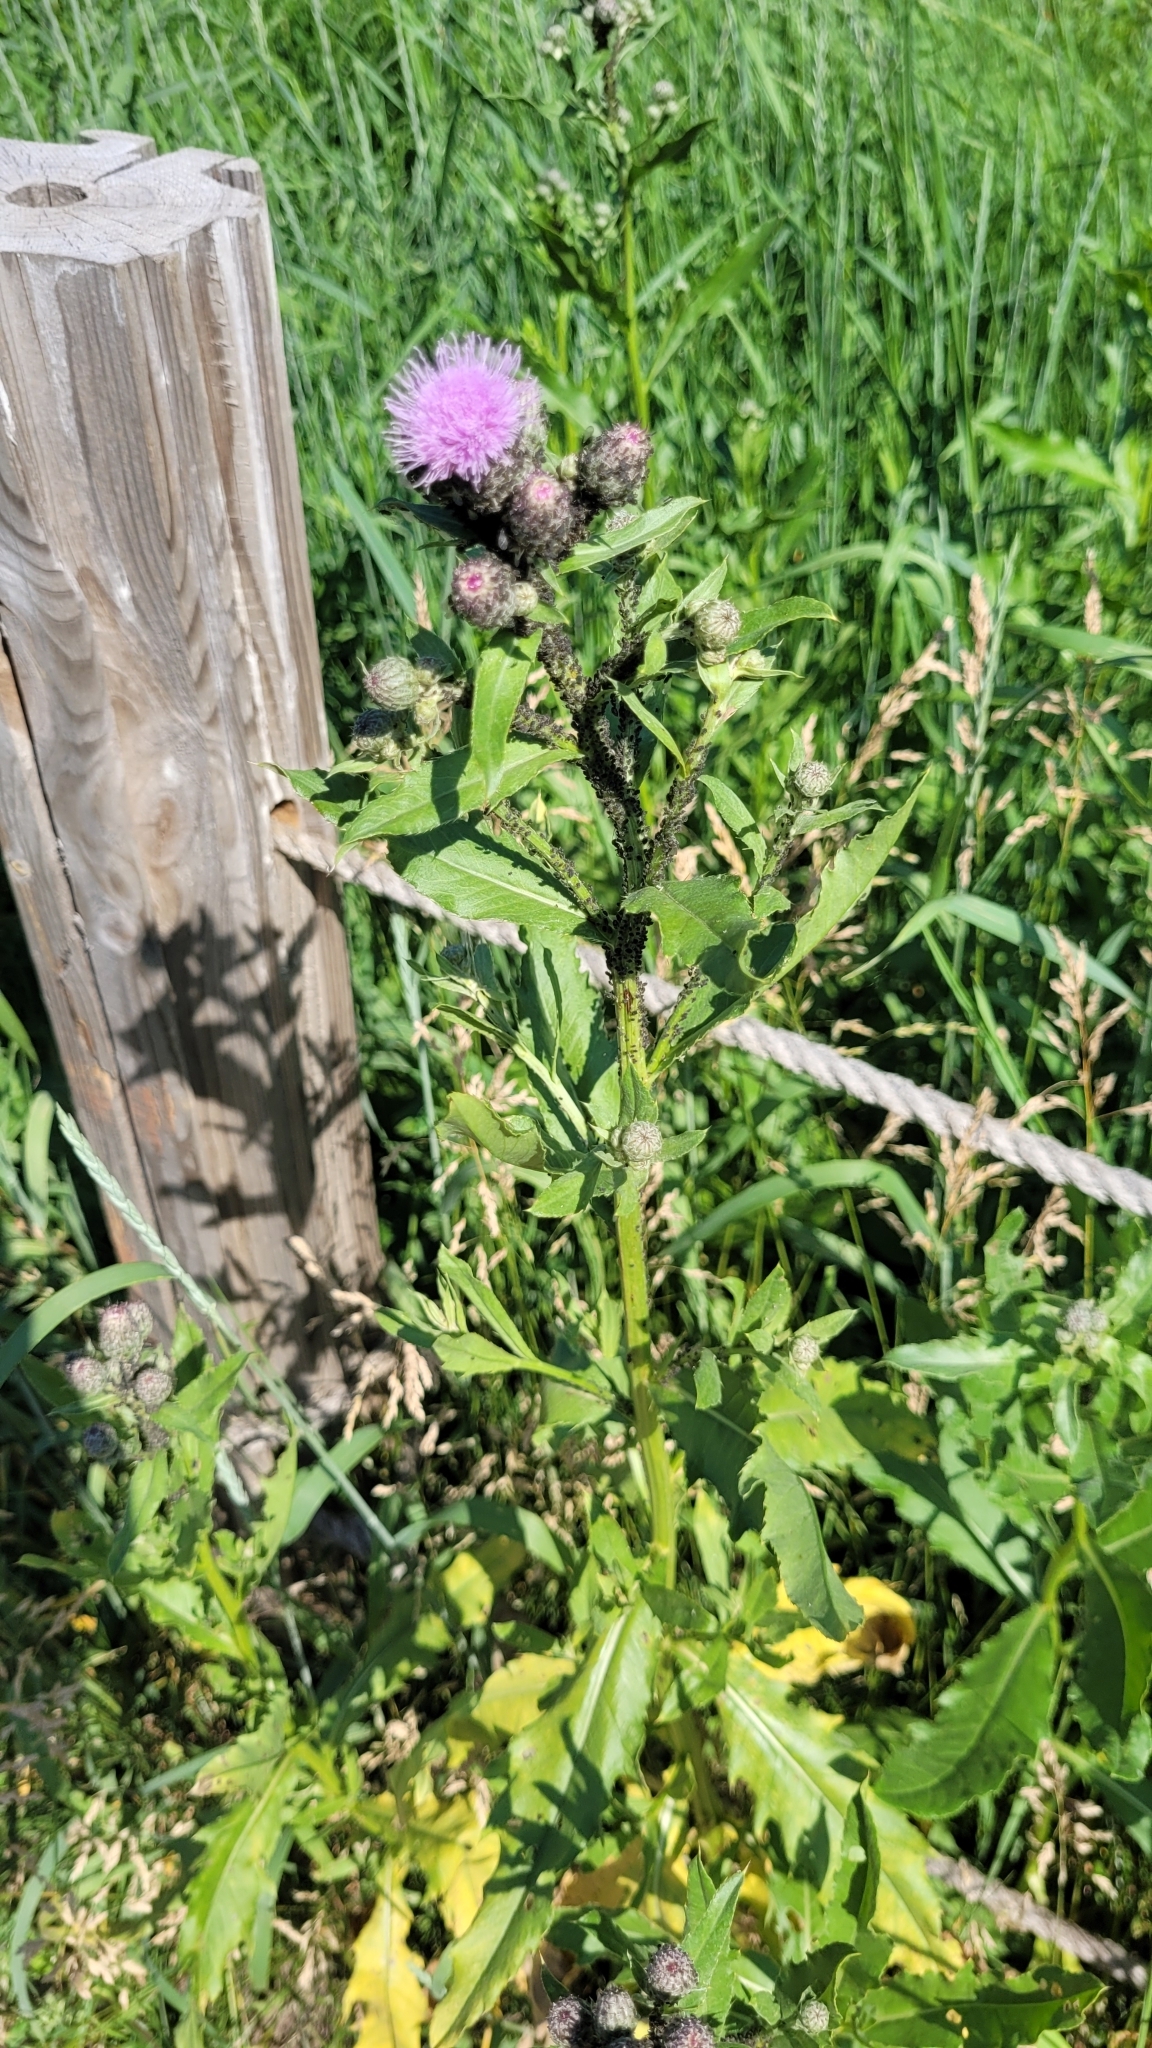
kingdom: Plantae
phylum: Tracheophyta
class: Magnoliopsida
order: Asterales
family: Asteraceae
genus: Cirsium
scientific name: Cirsium arvense
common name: Creeping thistle
